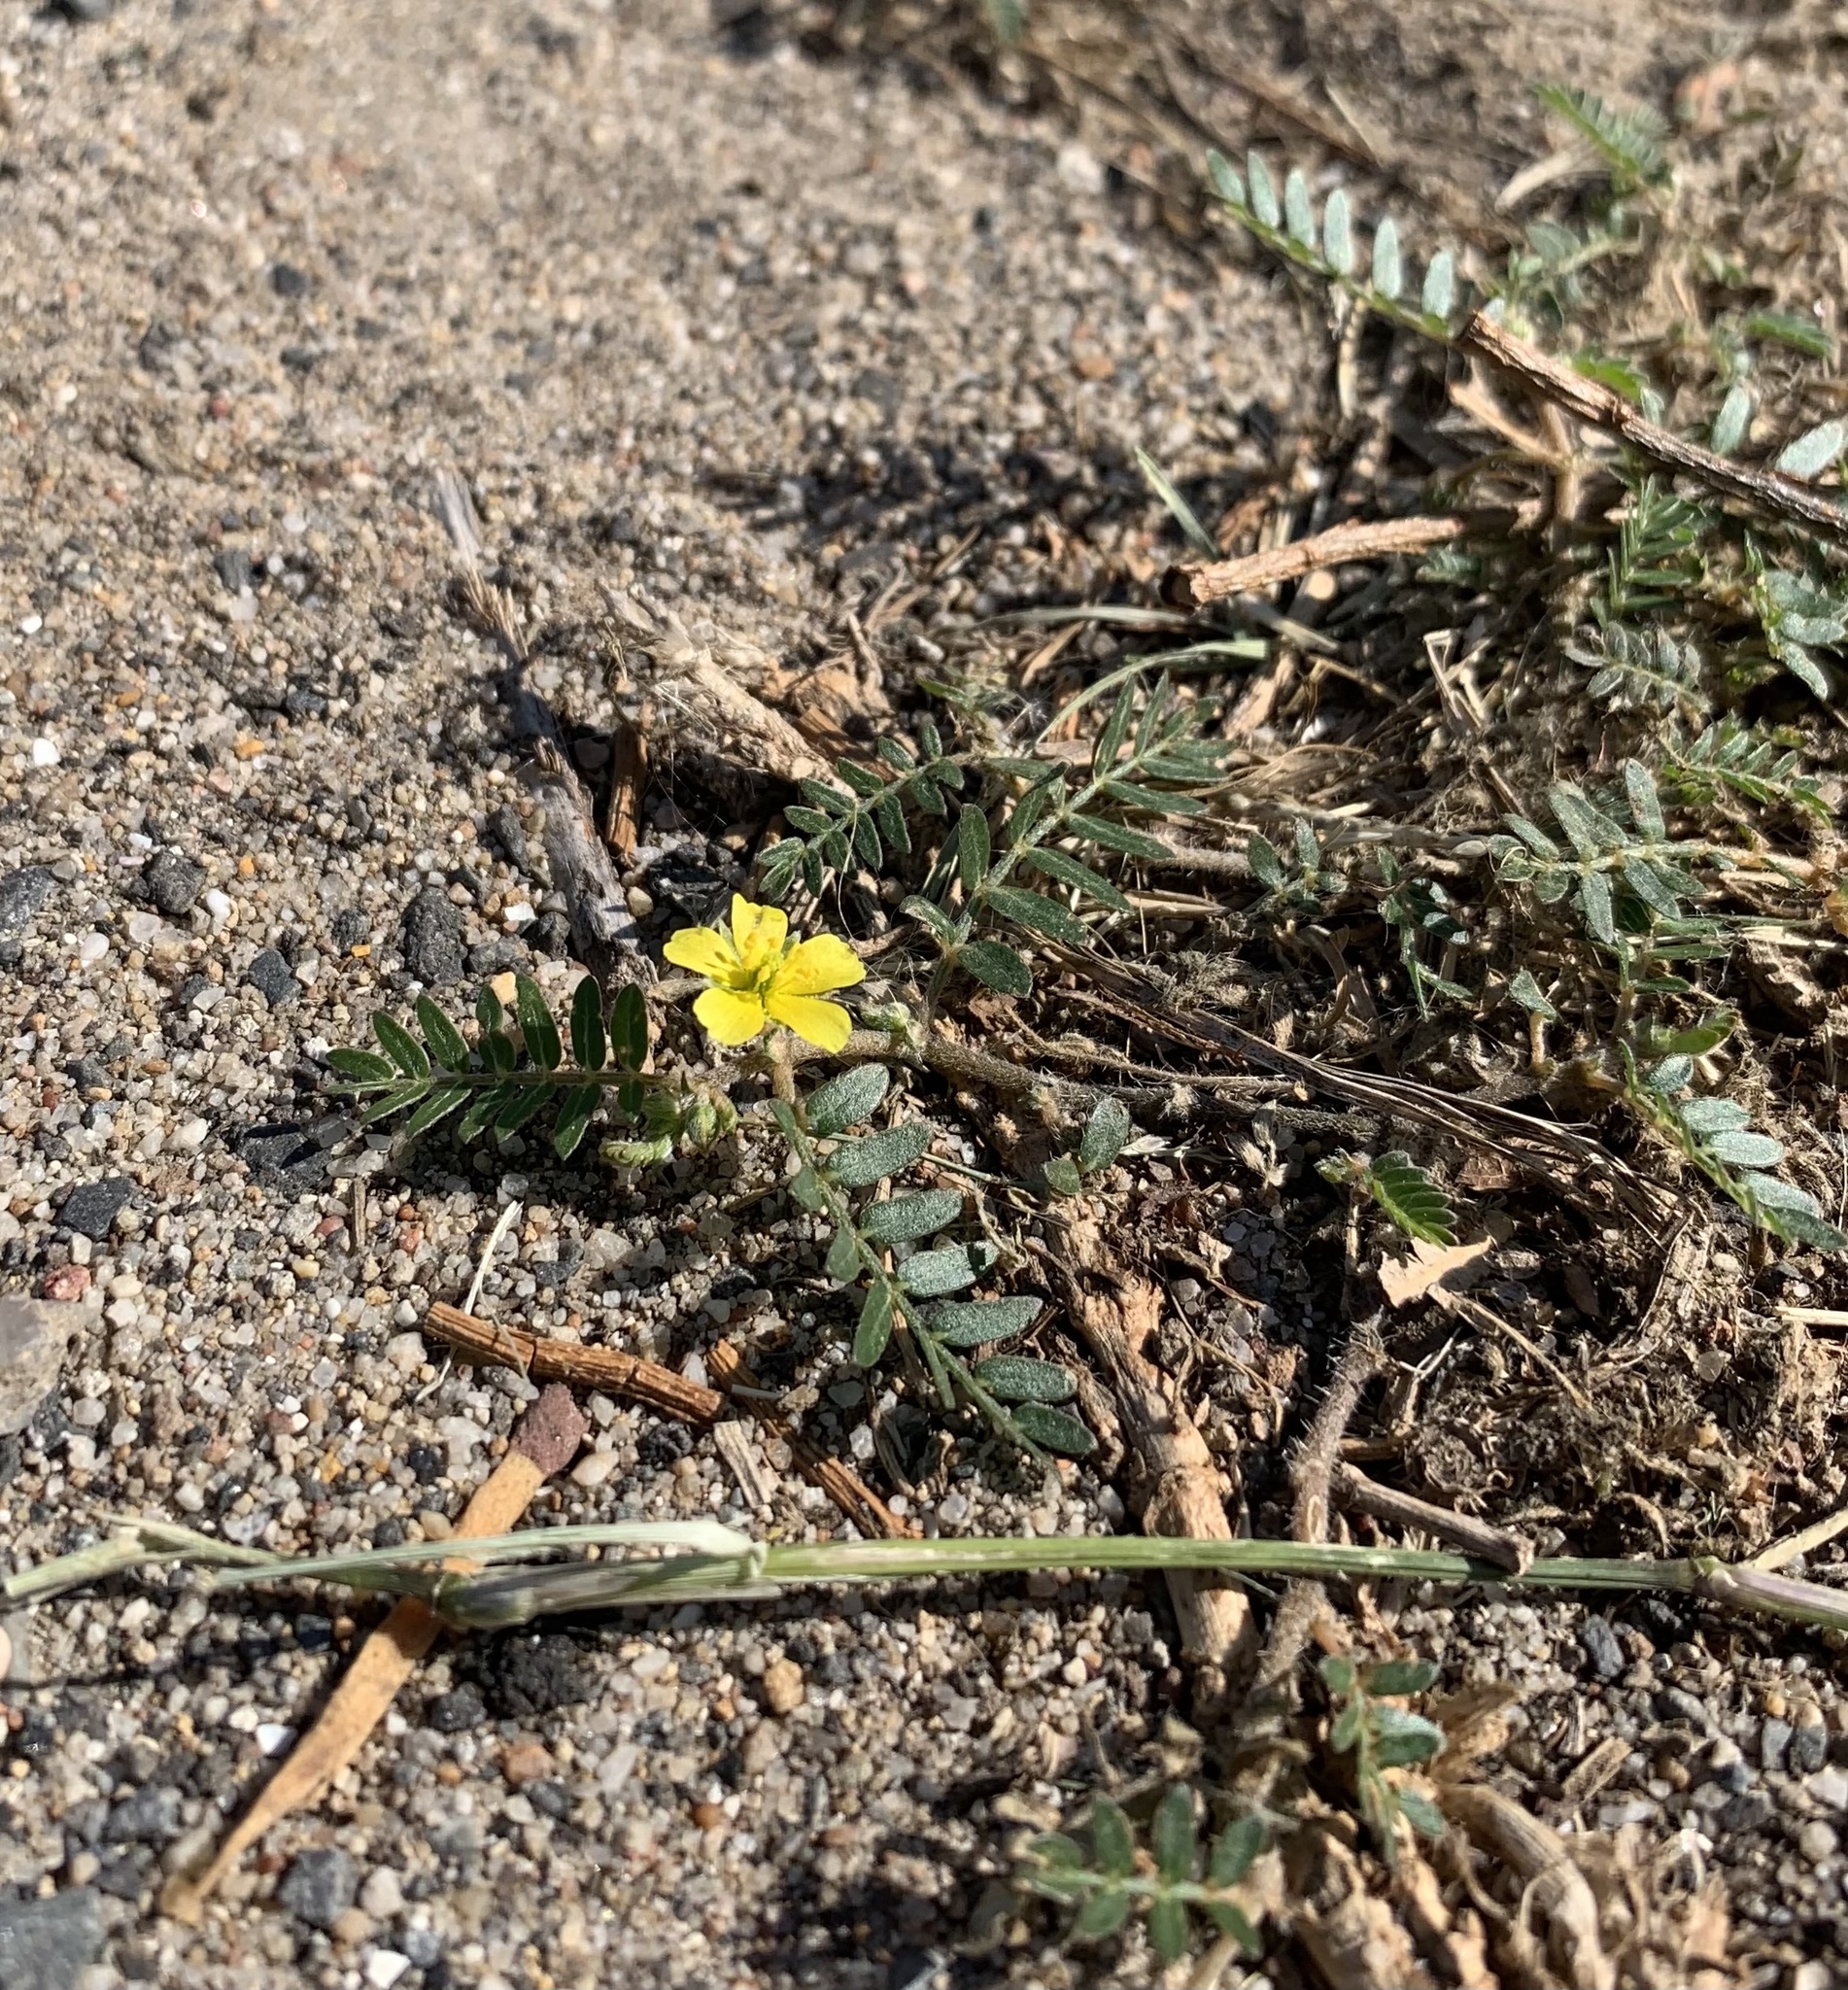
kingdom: Plantae
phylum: Tracheophyta
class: Magnoliopsida
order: Zygophyllales
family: Zygophyllaceae
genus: Tribulus
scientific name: Tribulus terrestris
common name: Puncturevine
